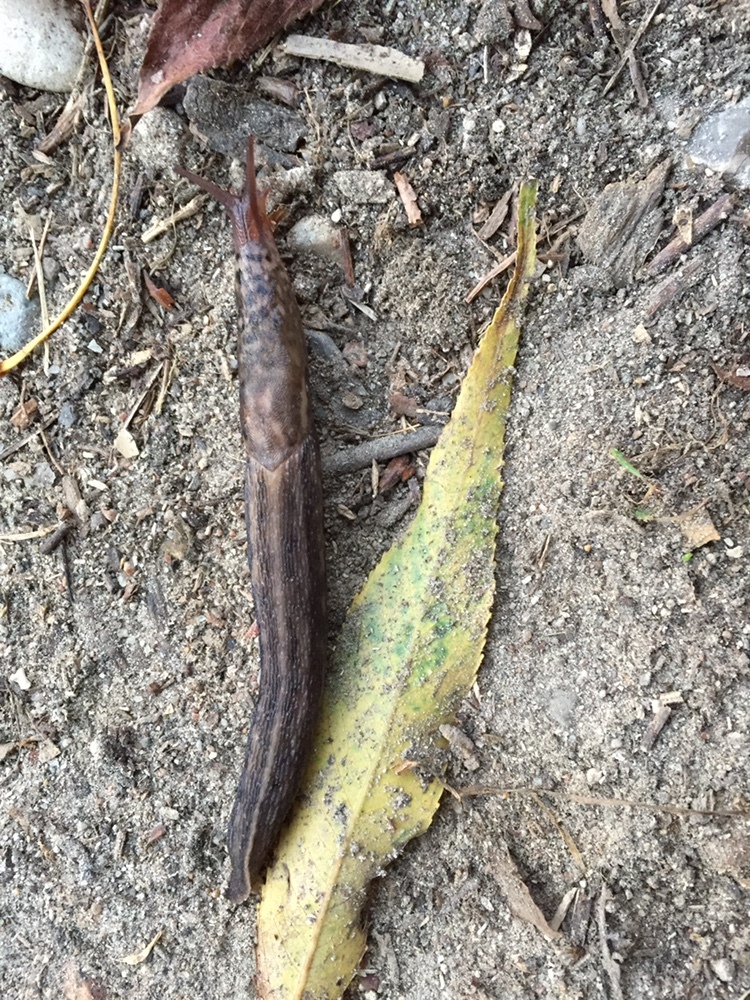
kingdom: Animalia
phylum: Mollusca
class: Gastropoda
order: Stylommatophora
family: Limacidae
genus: Limax
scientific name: Limax maximus
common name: Great grey slug
